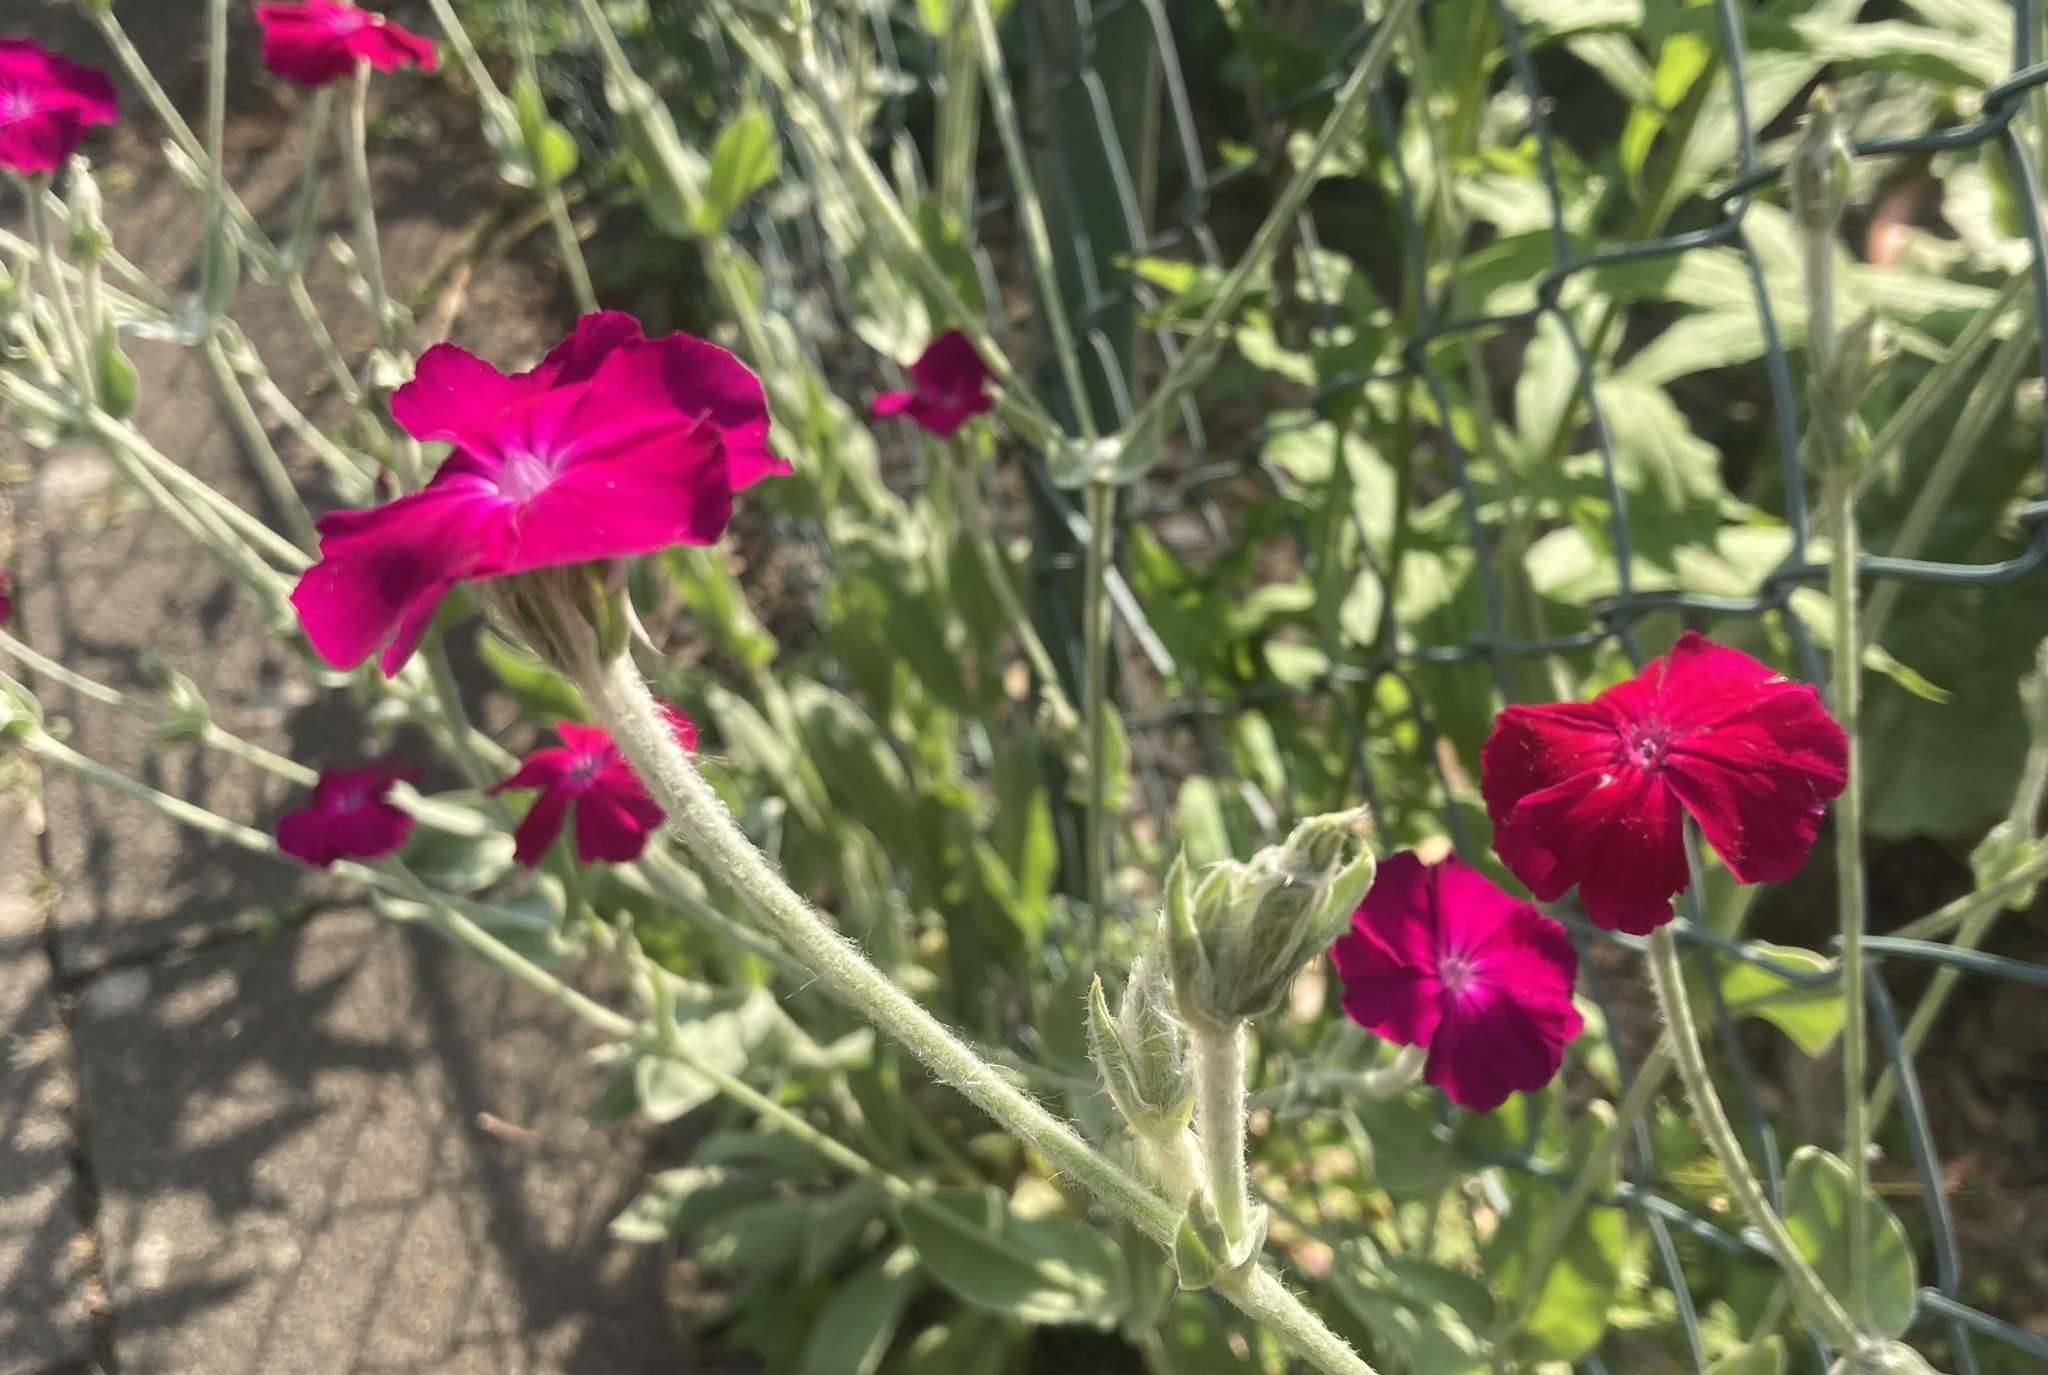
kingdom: Plantae
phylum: Tracheophyta
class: Magnoliopsida
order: Caryophyllales
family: Caryophyllaceae
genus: Silene
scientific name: Silene coronaria
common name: Rose campion
